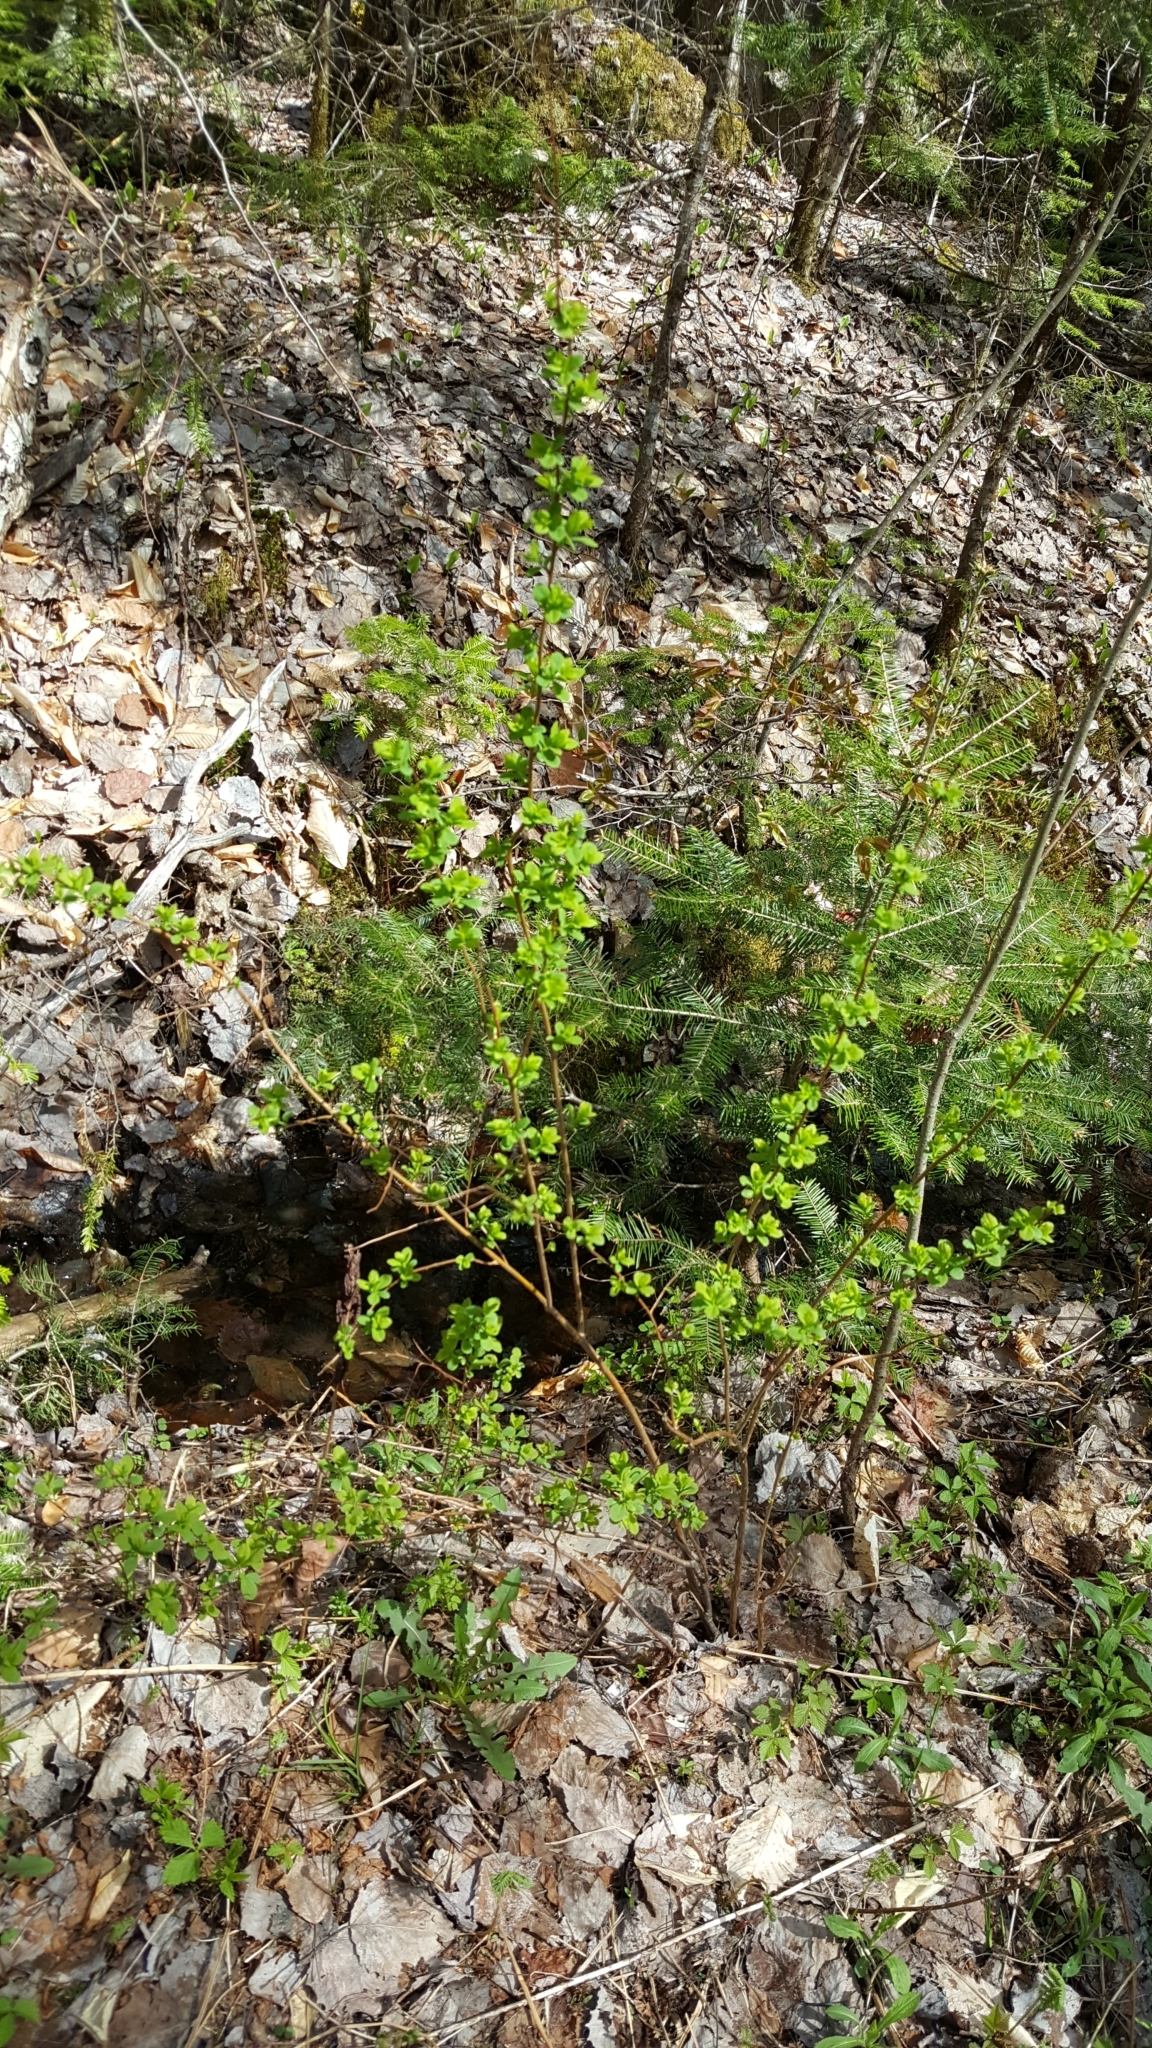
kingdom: Plantae
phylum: Tracheophyta
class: Magnoliopsida
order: Rosales
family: Rosaceae
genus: Spiraea
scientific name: Spiraea alba
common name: Pale bridewort
